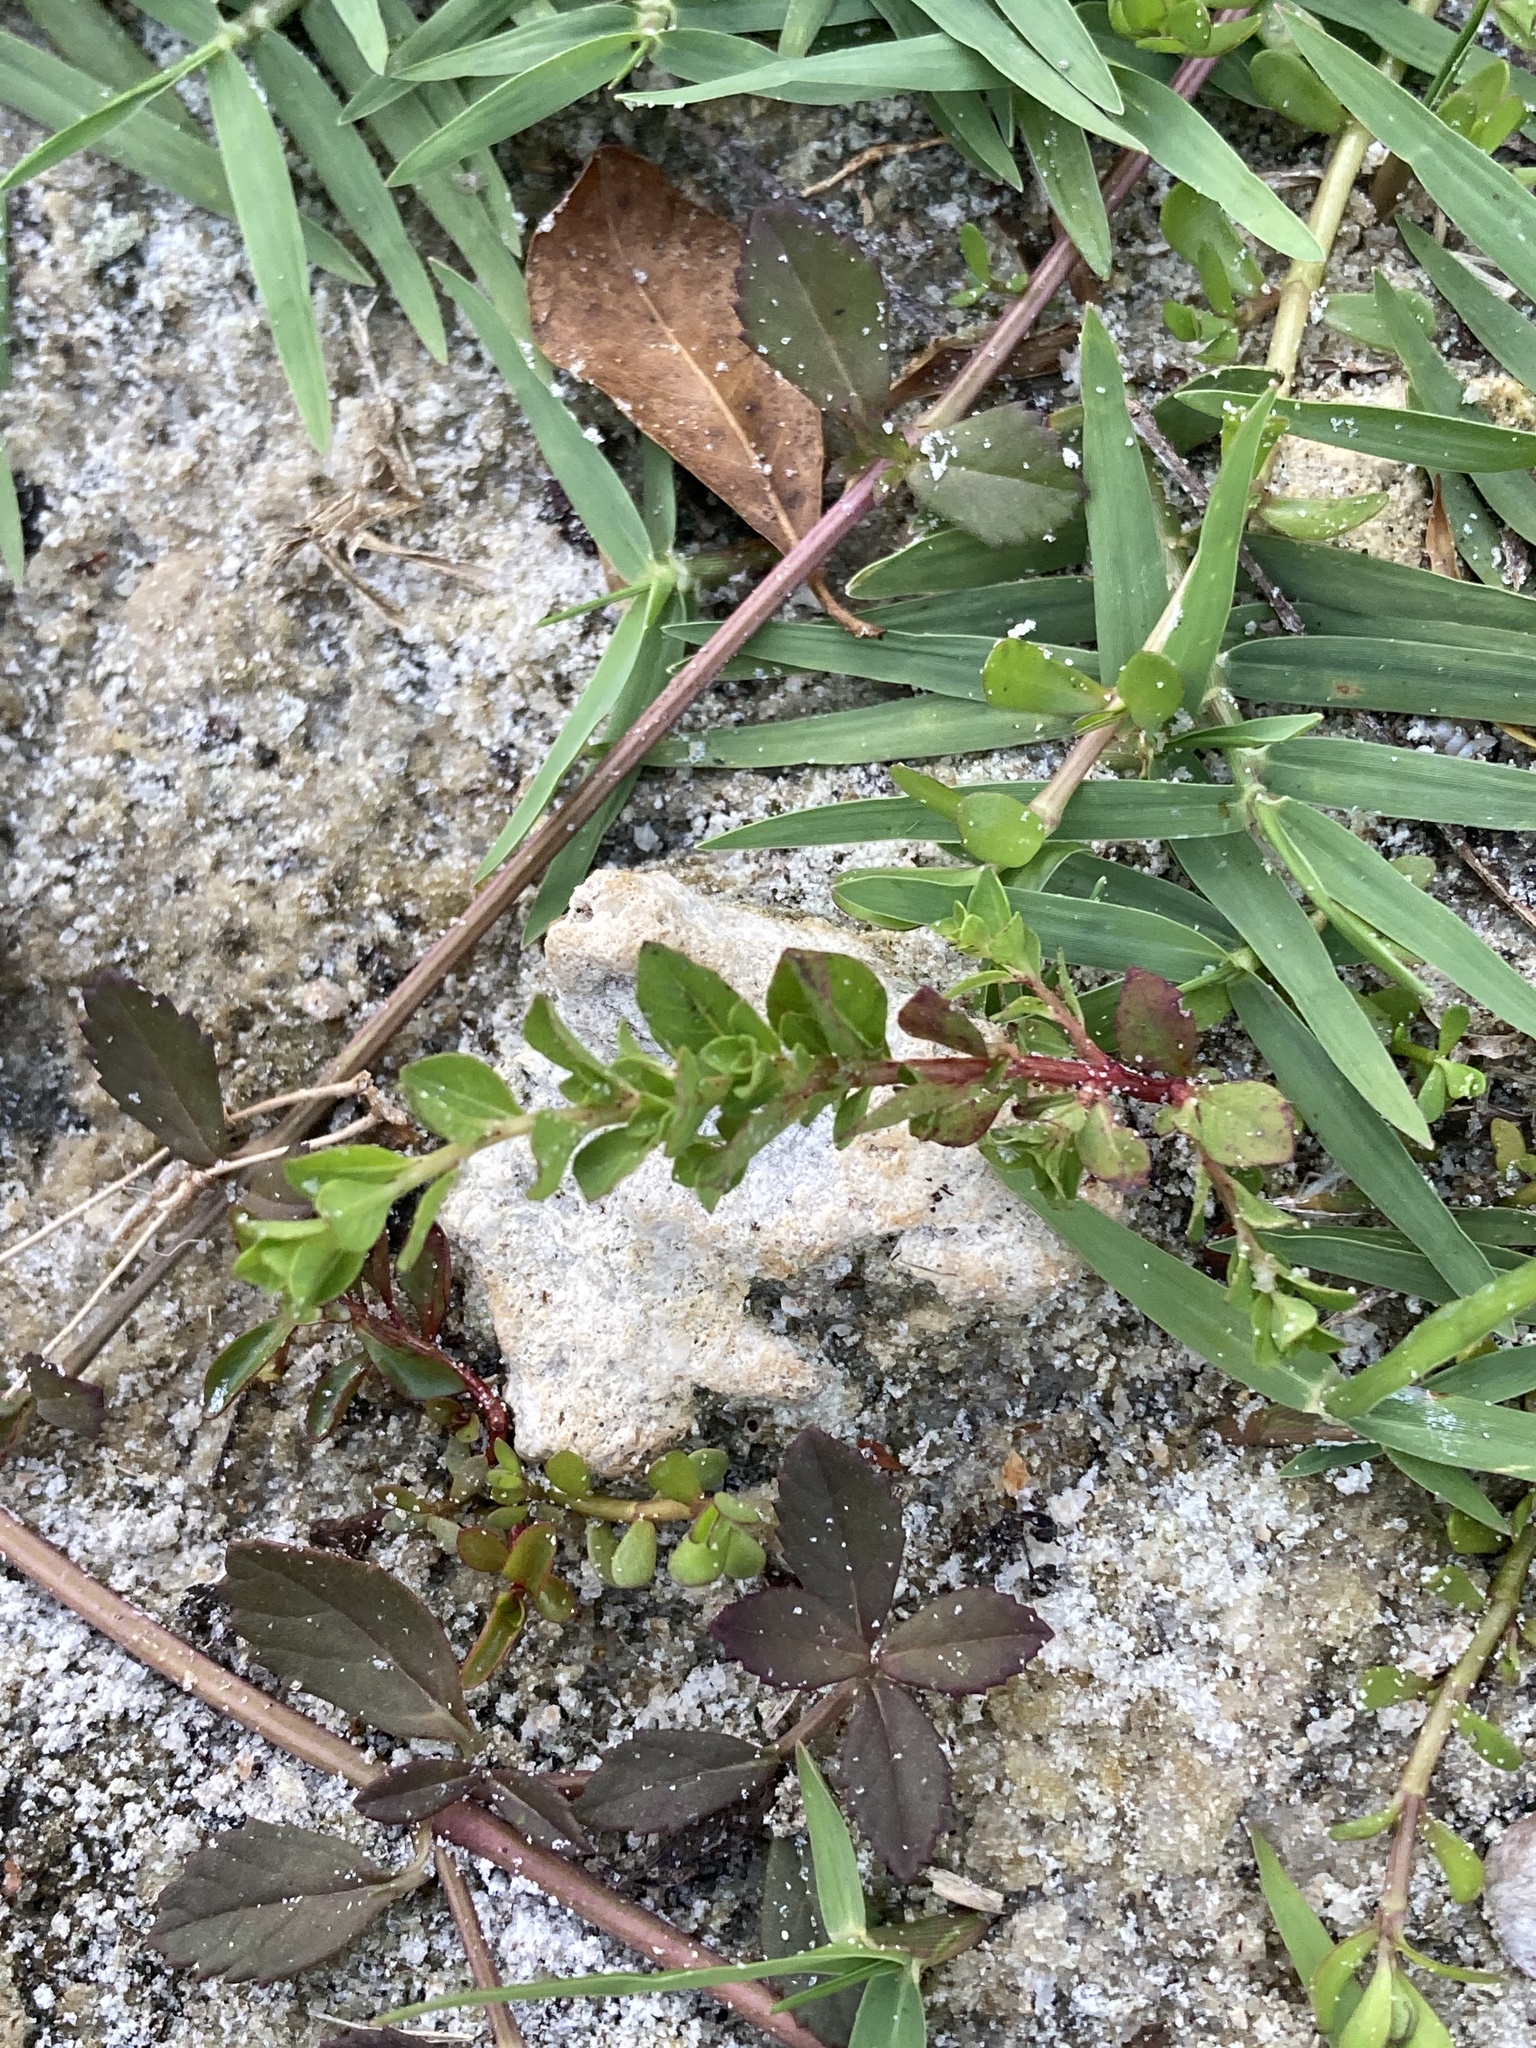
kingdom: Plantae
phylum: Tracheophyta
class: Magnoliopsida
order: Myrtales
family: Onagraceae
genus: Ludwigia
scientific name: Ludwigia microcarpa
